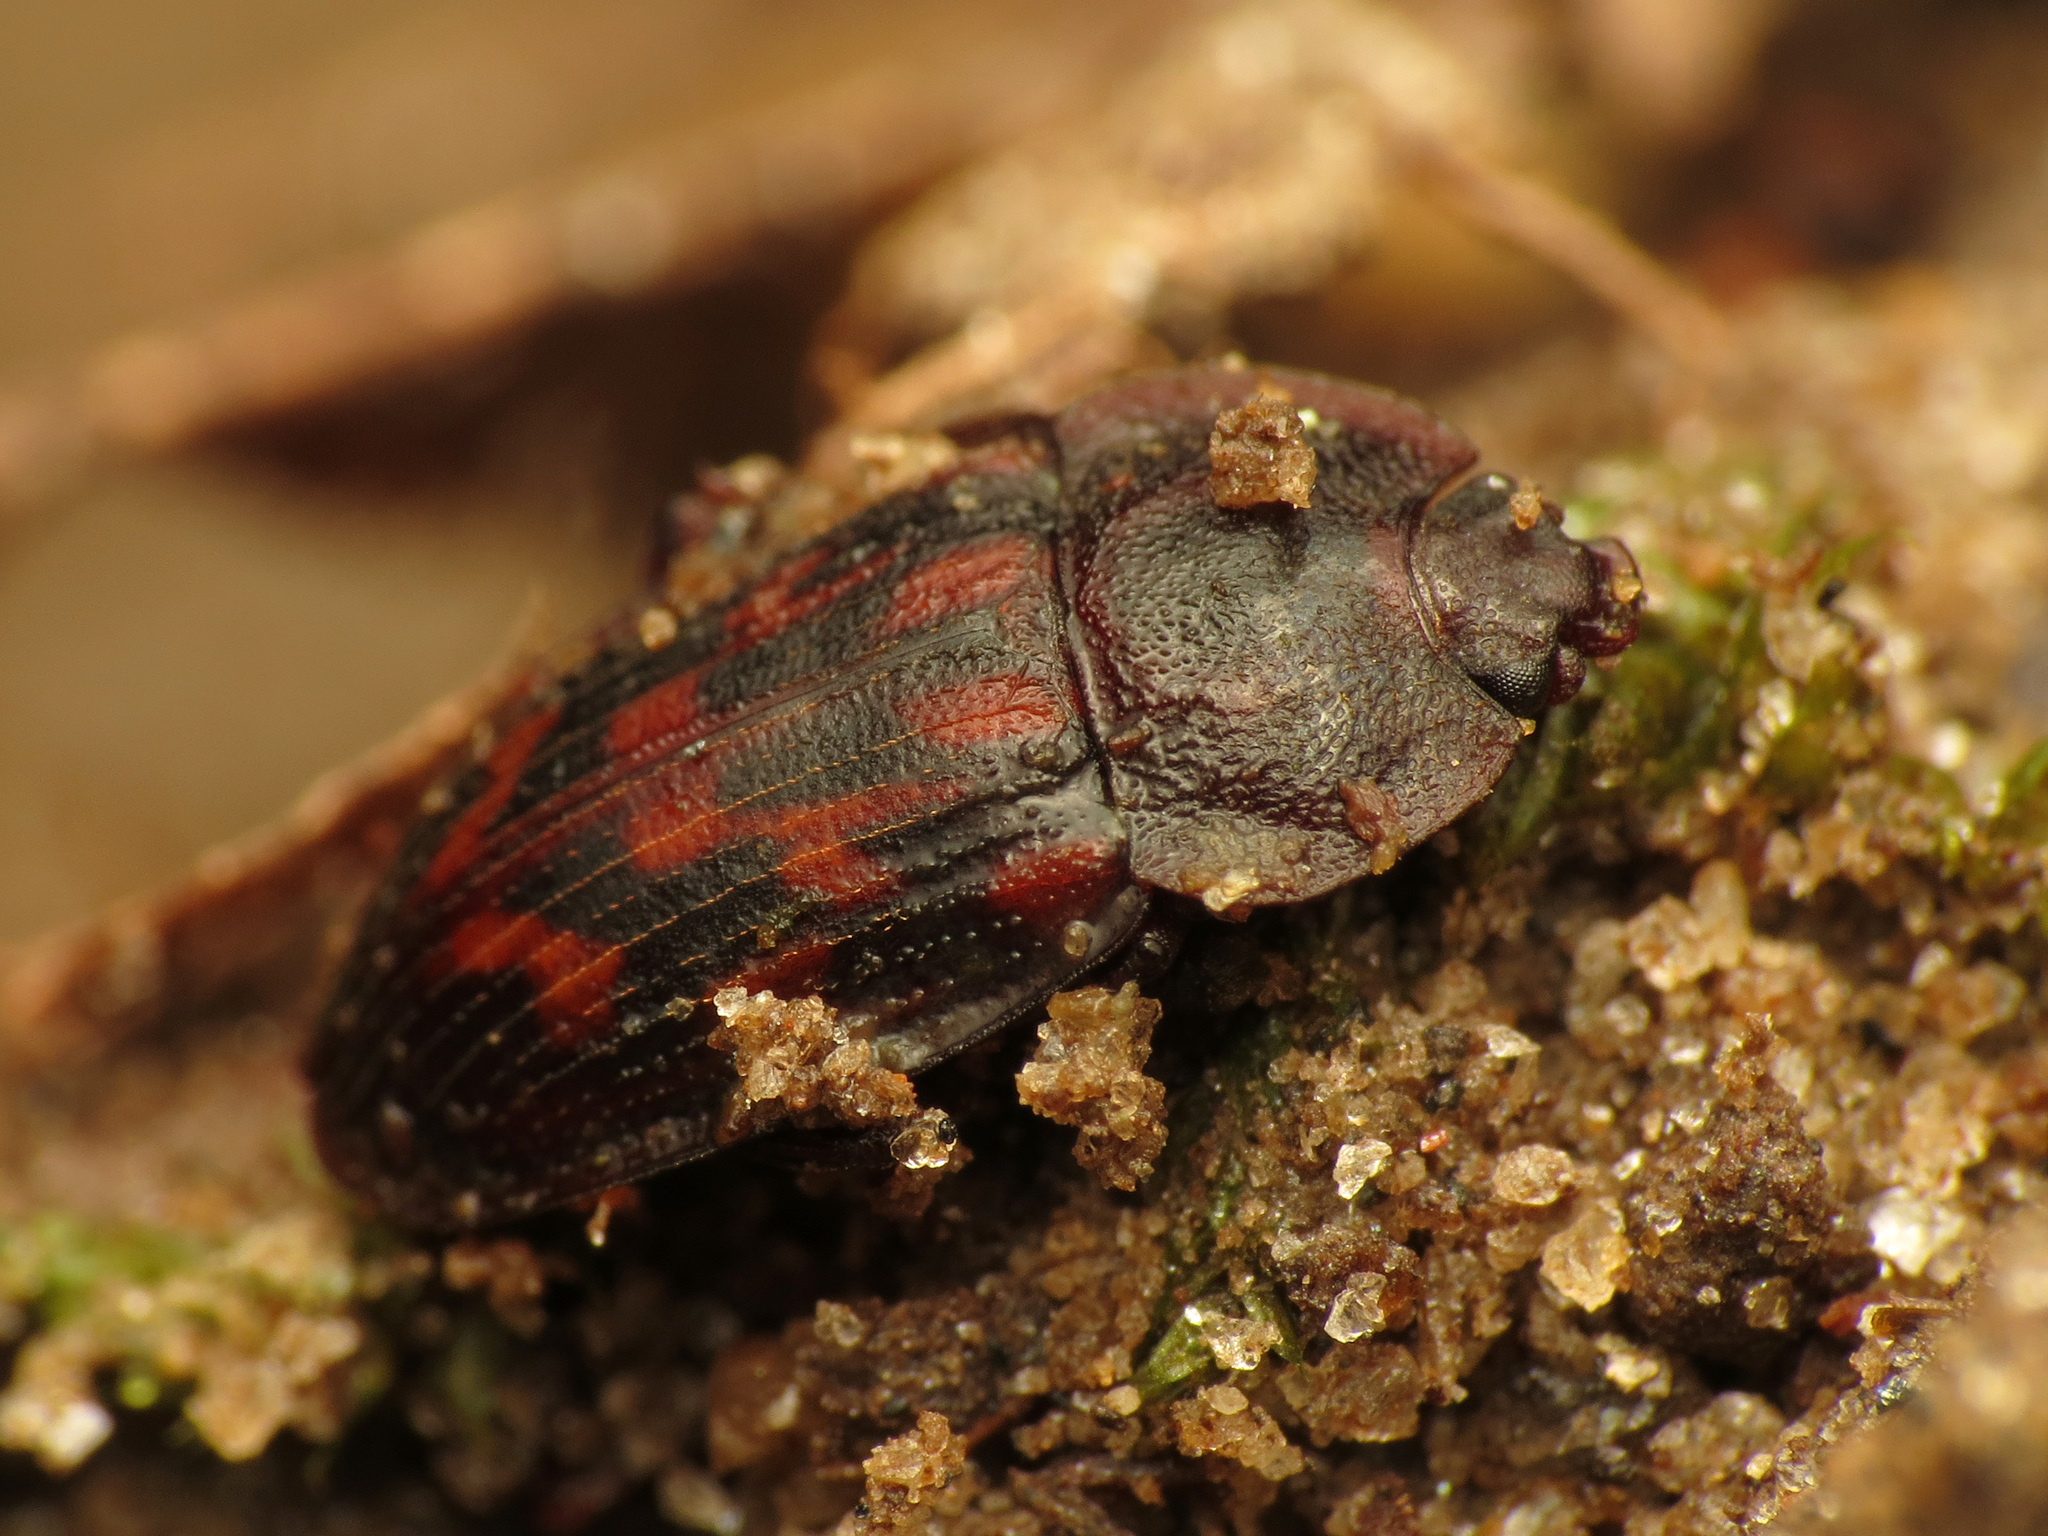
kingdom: Animalia
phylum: Arthropoda
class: Insecta
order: Coleoptera
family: Nitidulidae
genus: Phenolia
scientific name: Phenolia grossa
